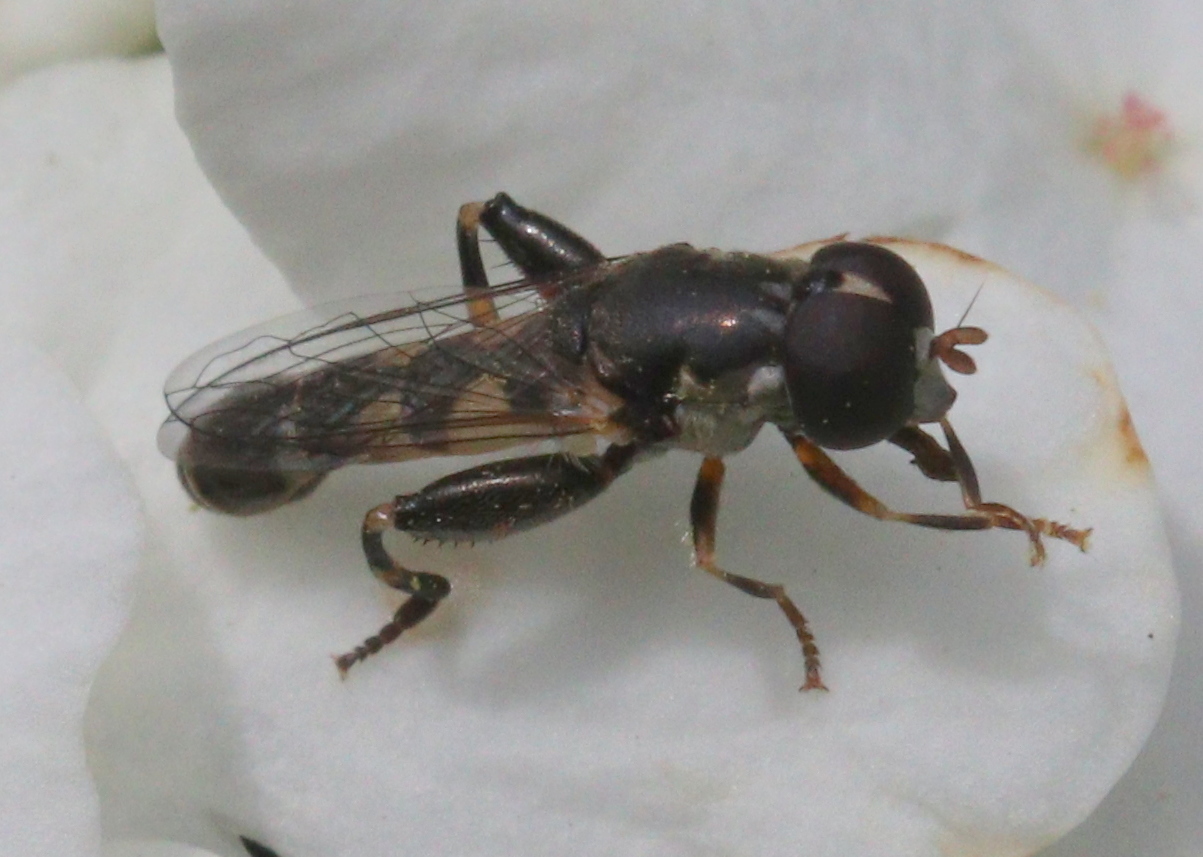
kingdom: Animalia
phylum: Arthropoda
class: Insecta
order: Diptera
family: Syrphidae
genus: Syritta
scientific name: Syritta pipiens
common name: Hover fly
